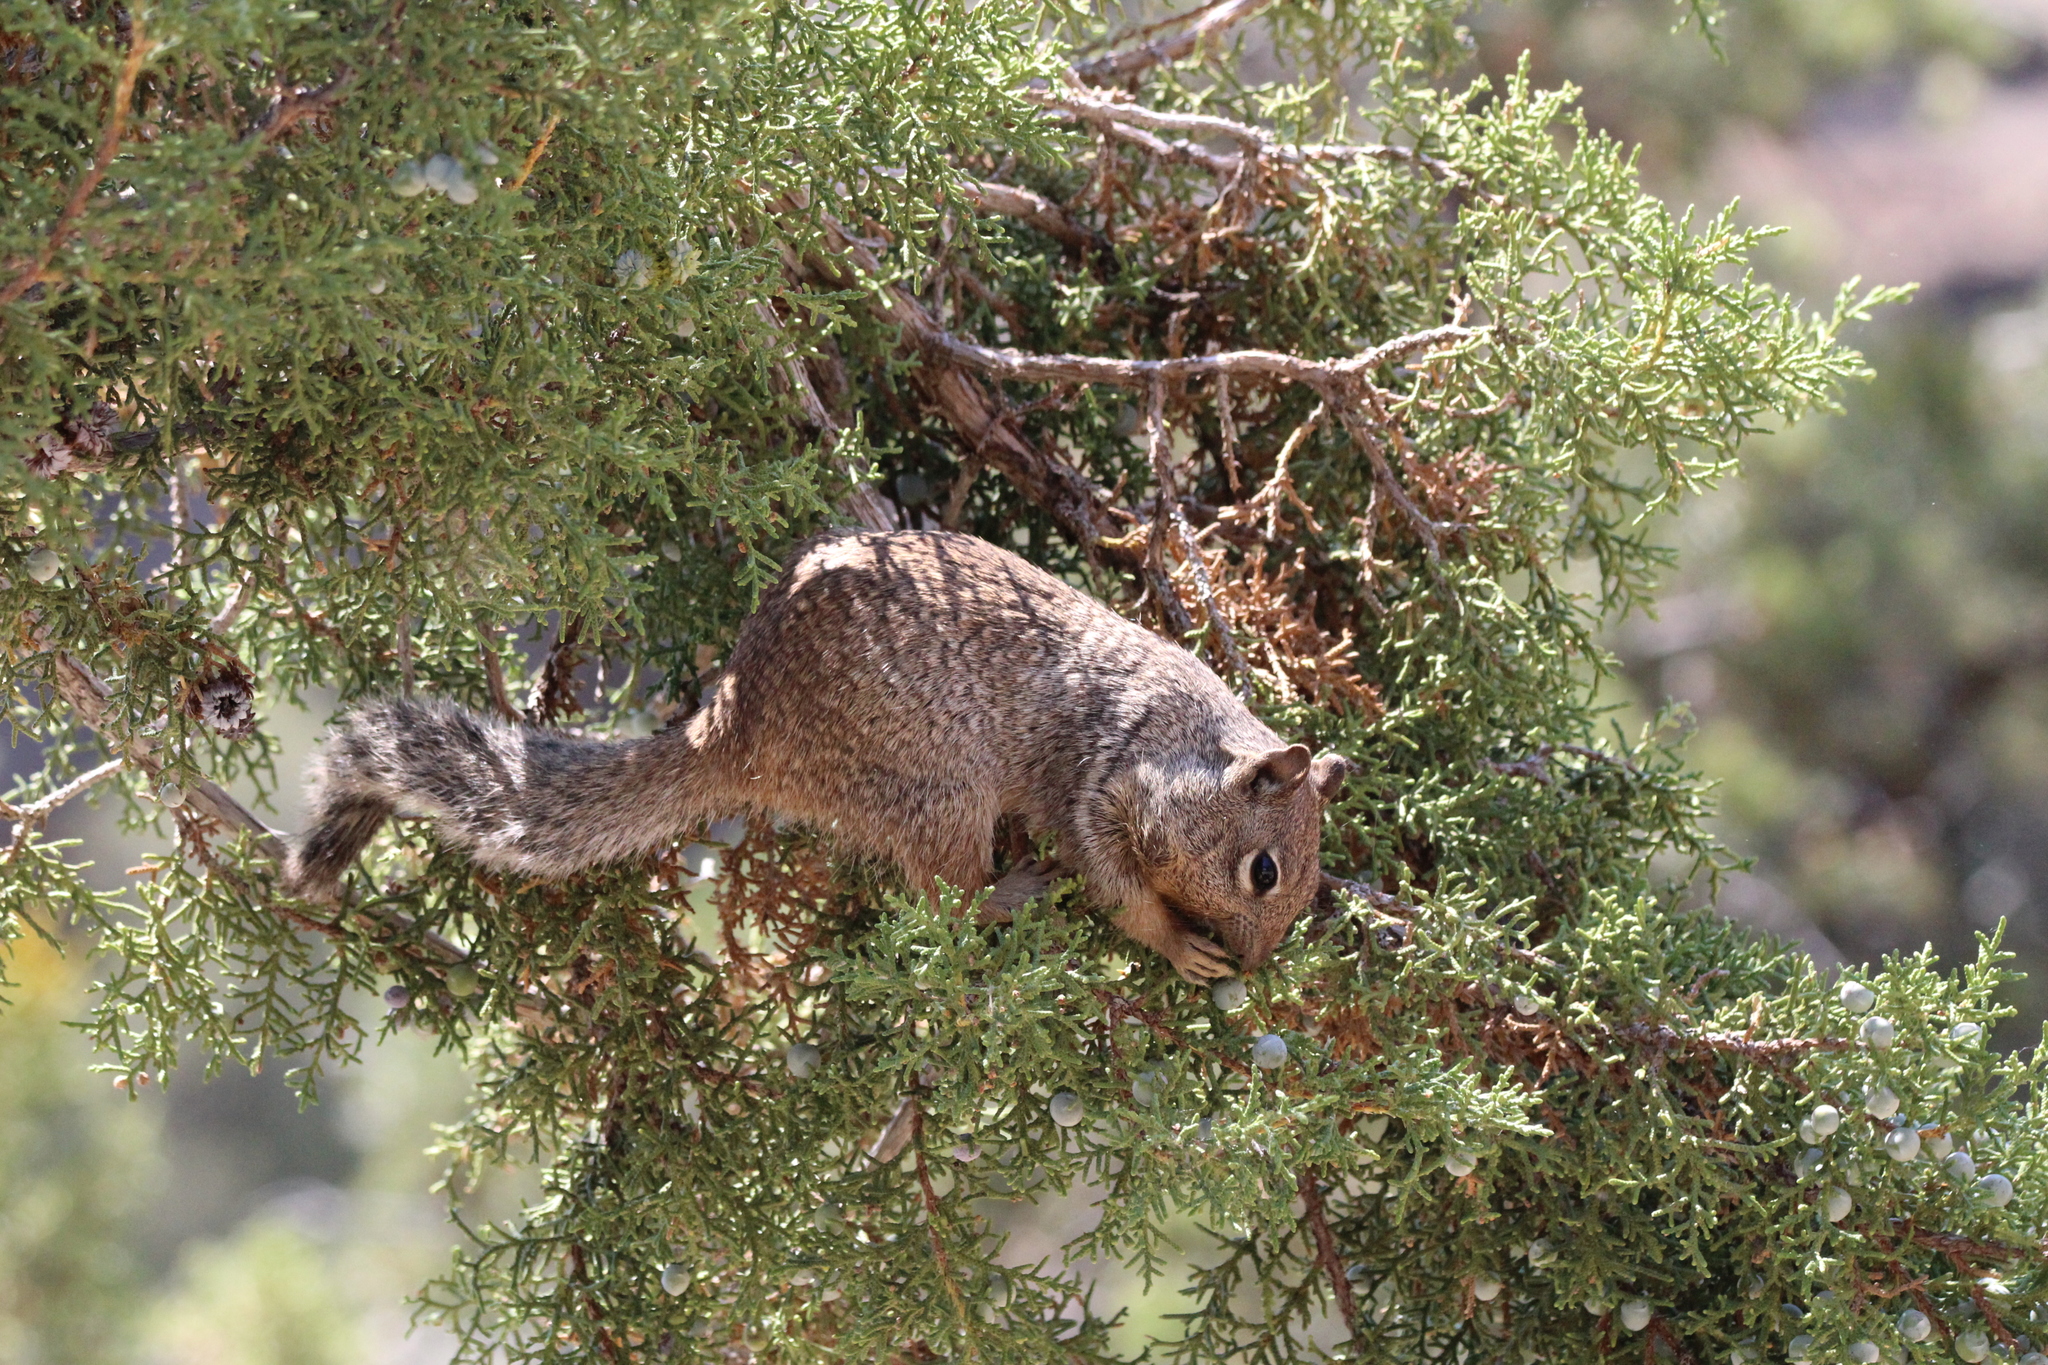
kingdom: Animalia
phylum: Chordata
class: Mammalia
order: Rodentia
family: Sciuridae
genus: Otospermophilus
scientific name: Otospermophilus variegatus
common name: Rock squirrel
